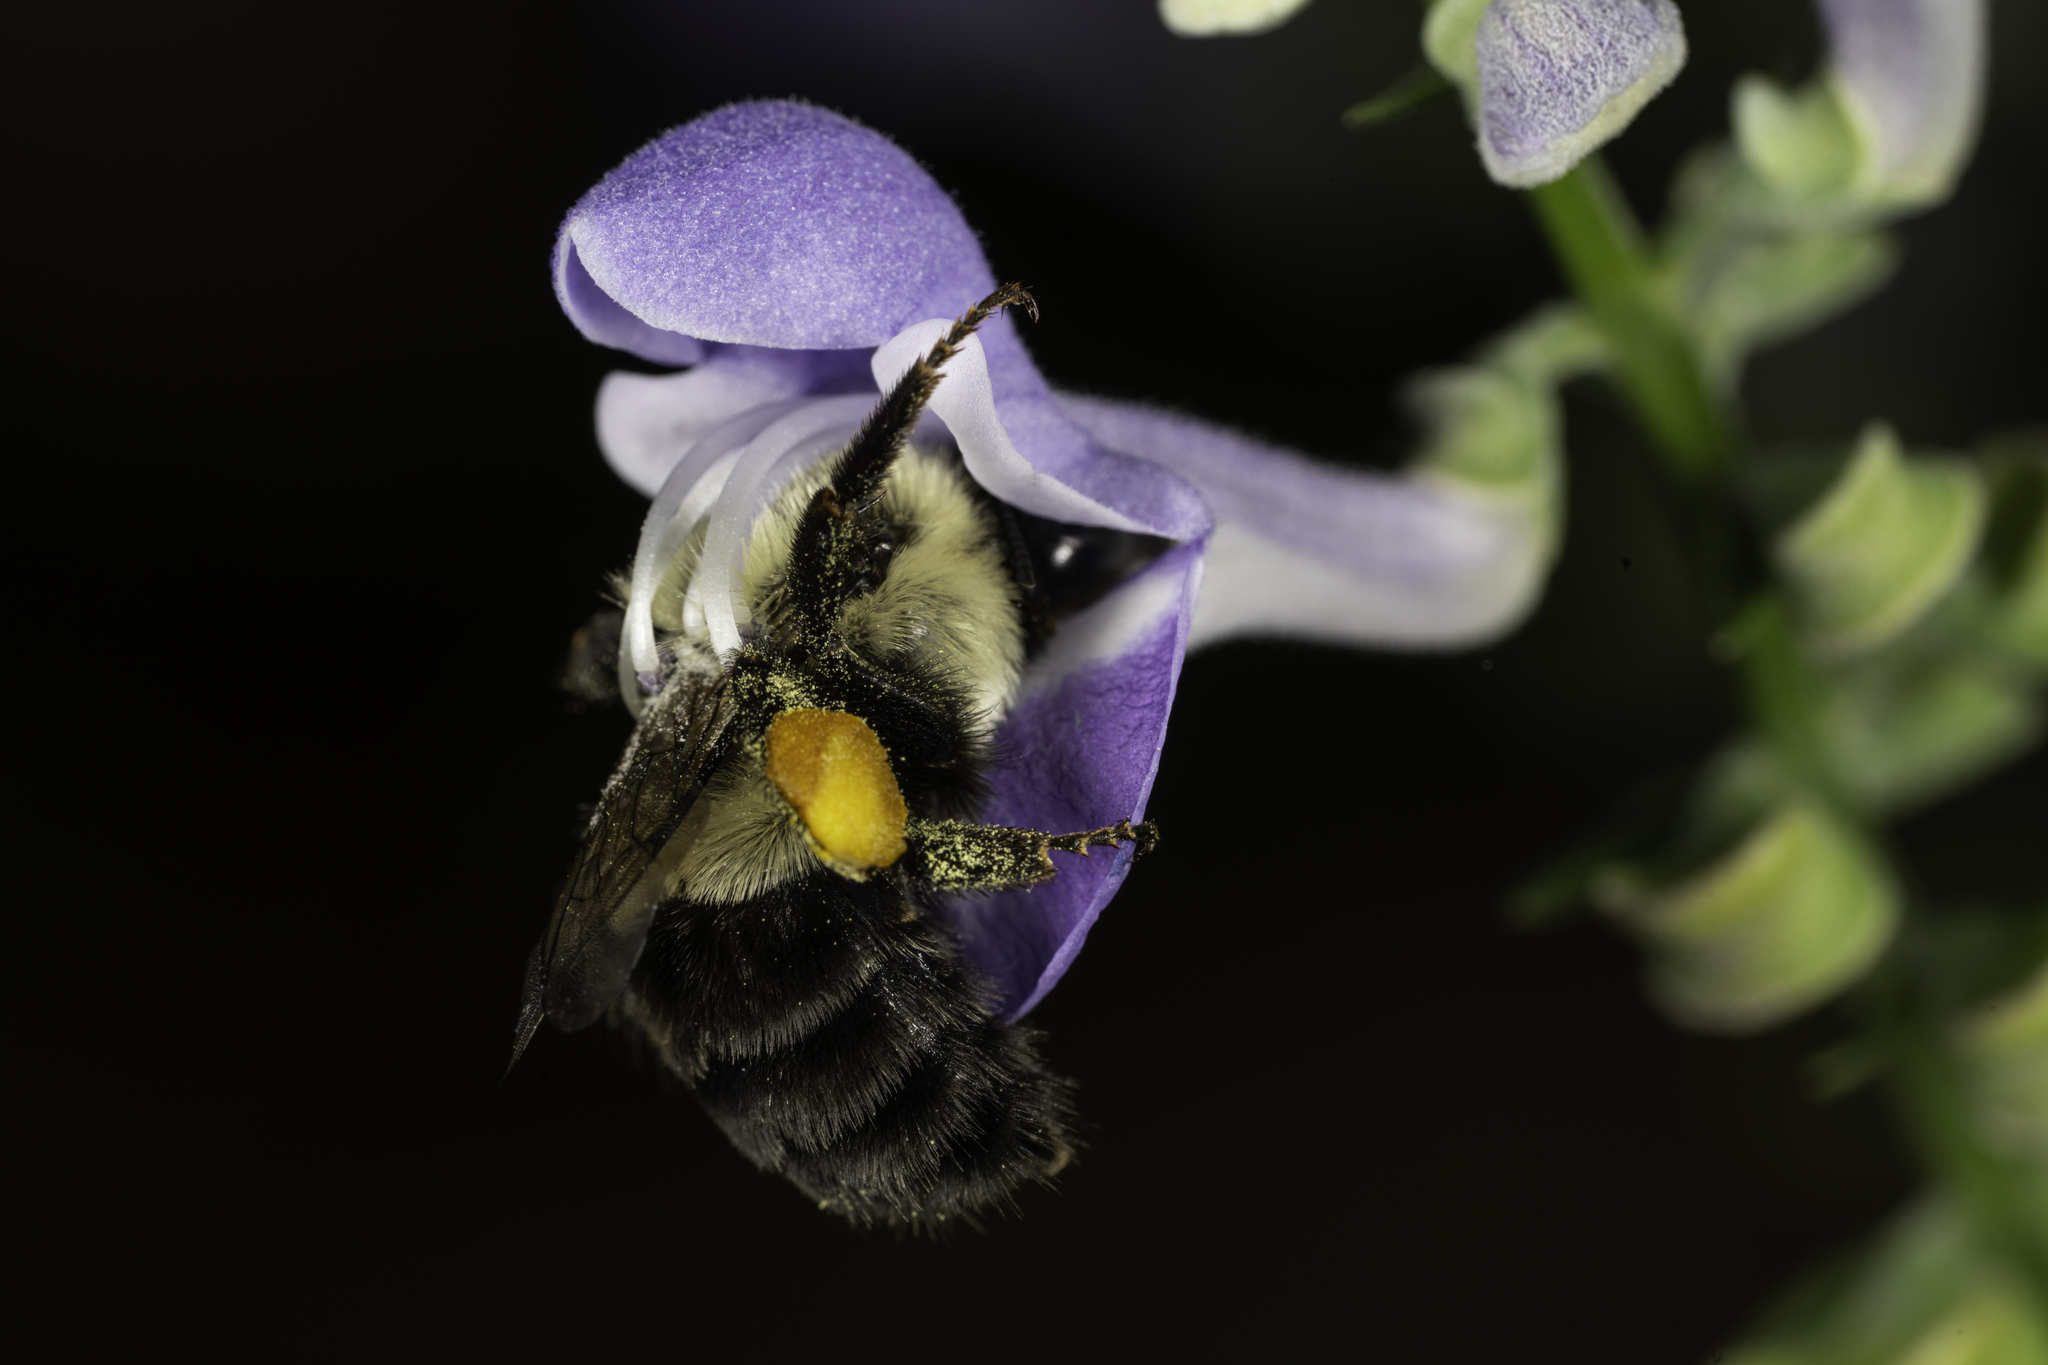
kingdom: Animalia
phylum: Arthropoda
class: Insecta
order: Hymenoptera
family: Apidae
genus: Bombus
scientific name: Bombus impatiens
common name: Common eastern bumble bee
